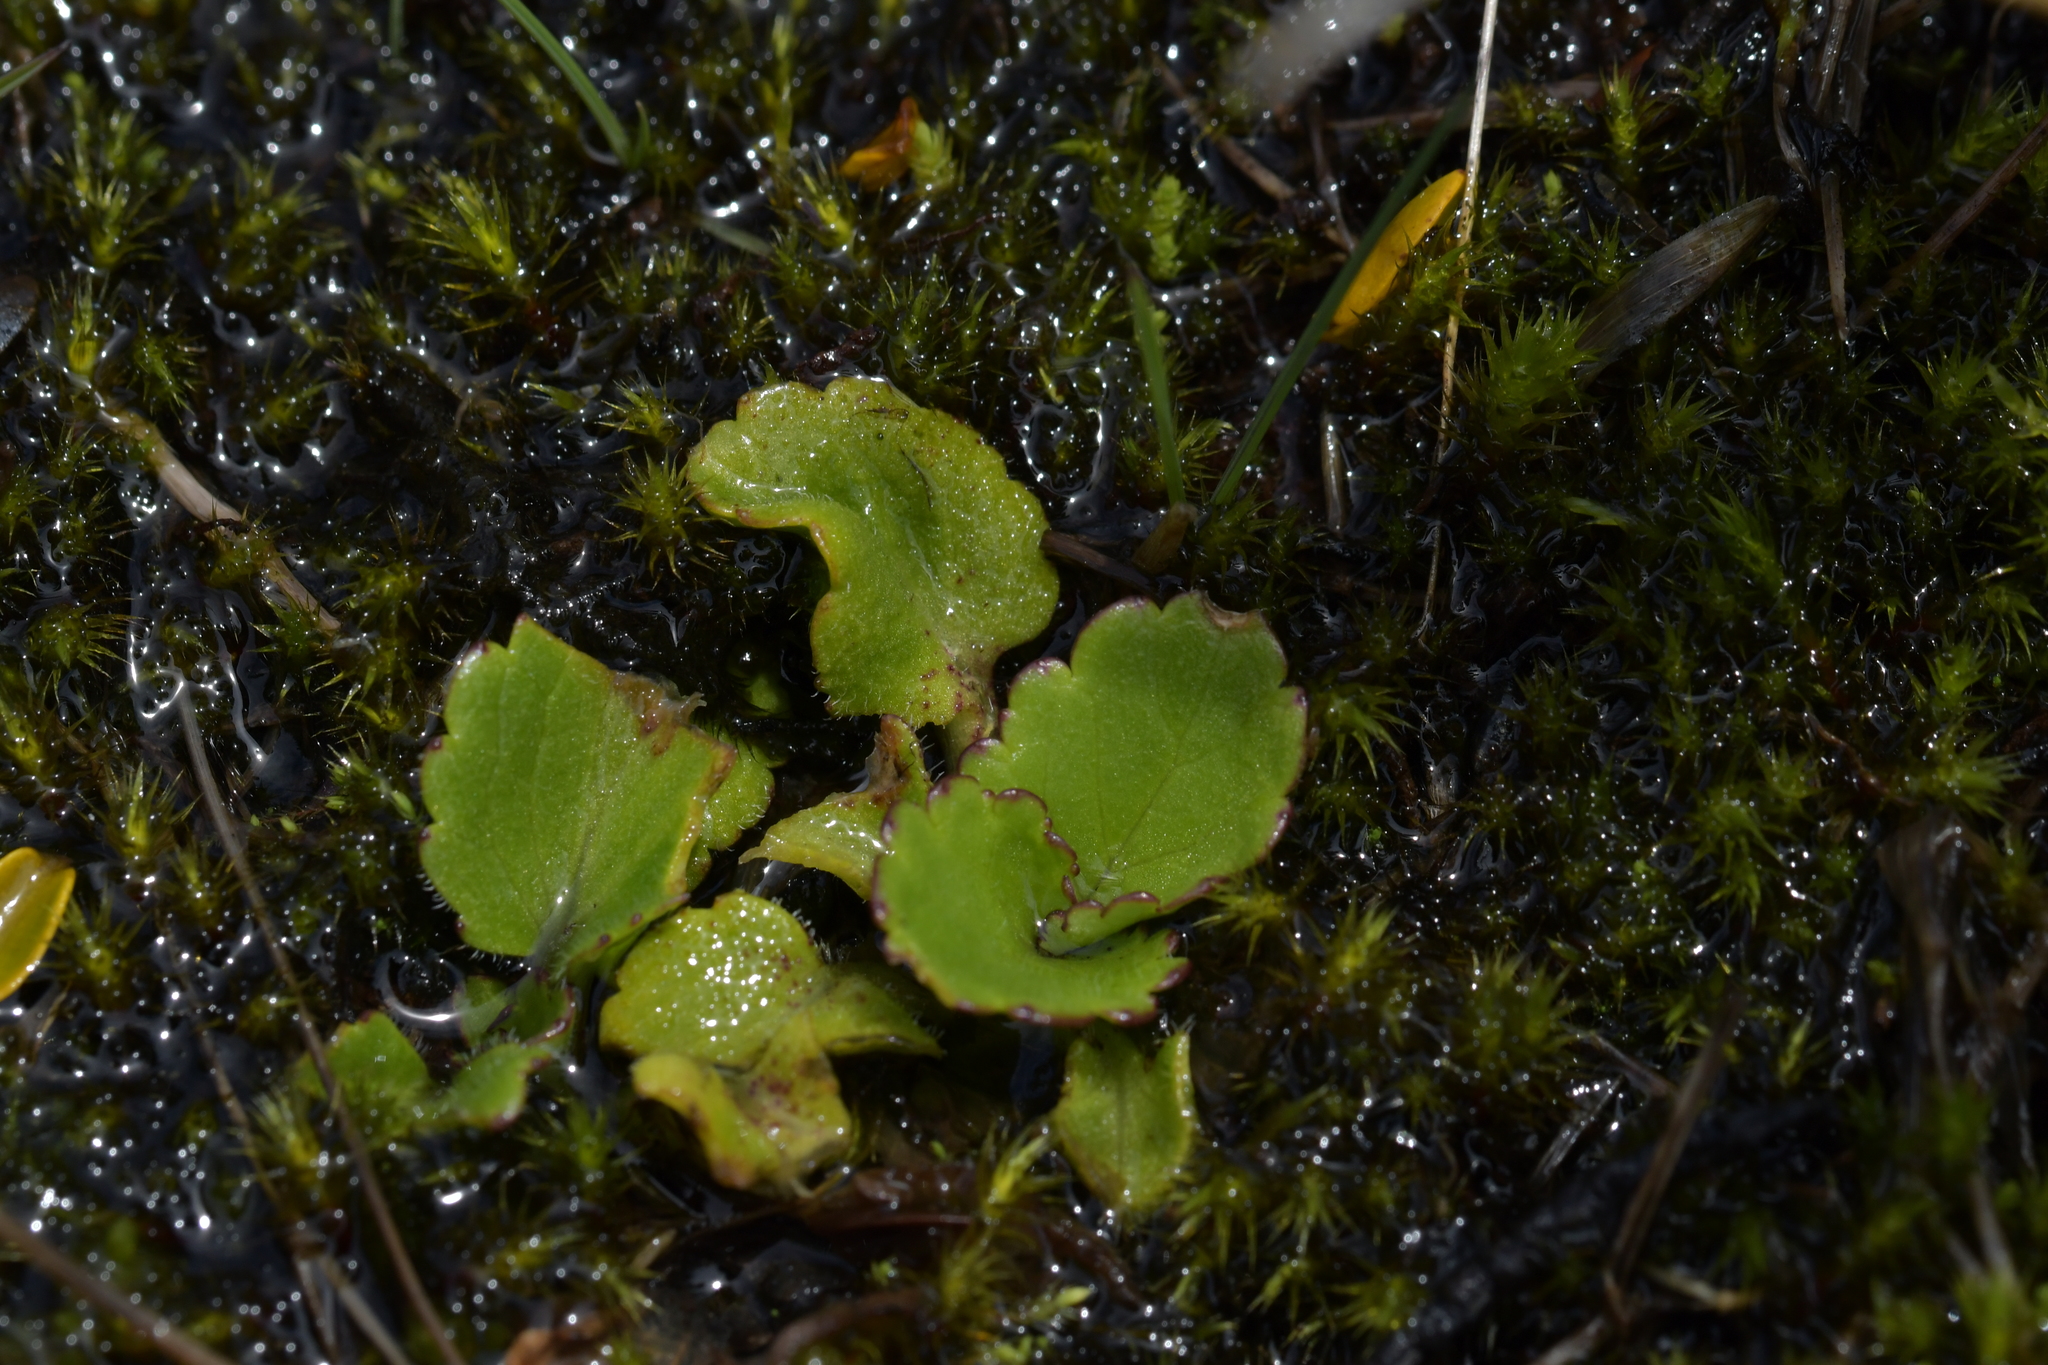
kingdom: Plantae
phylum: Tracheophyta
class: Magnoliopsida
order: Ranunculales
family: Ranunculaceae
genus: Ranunculus
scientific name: Ranunculus insignis
